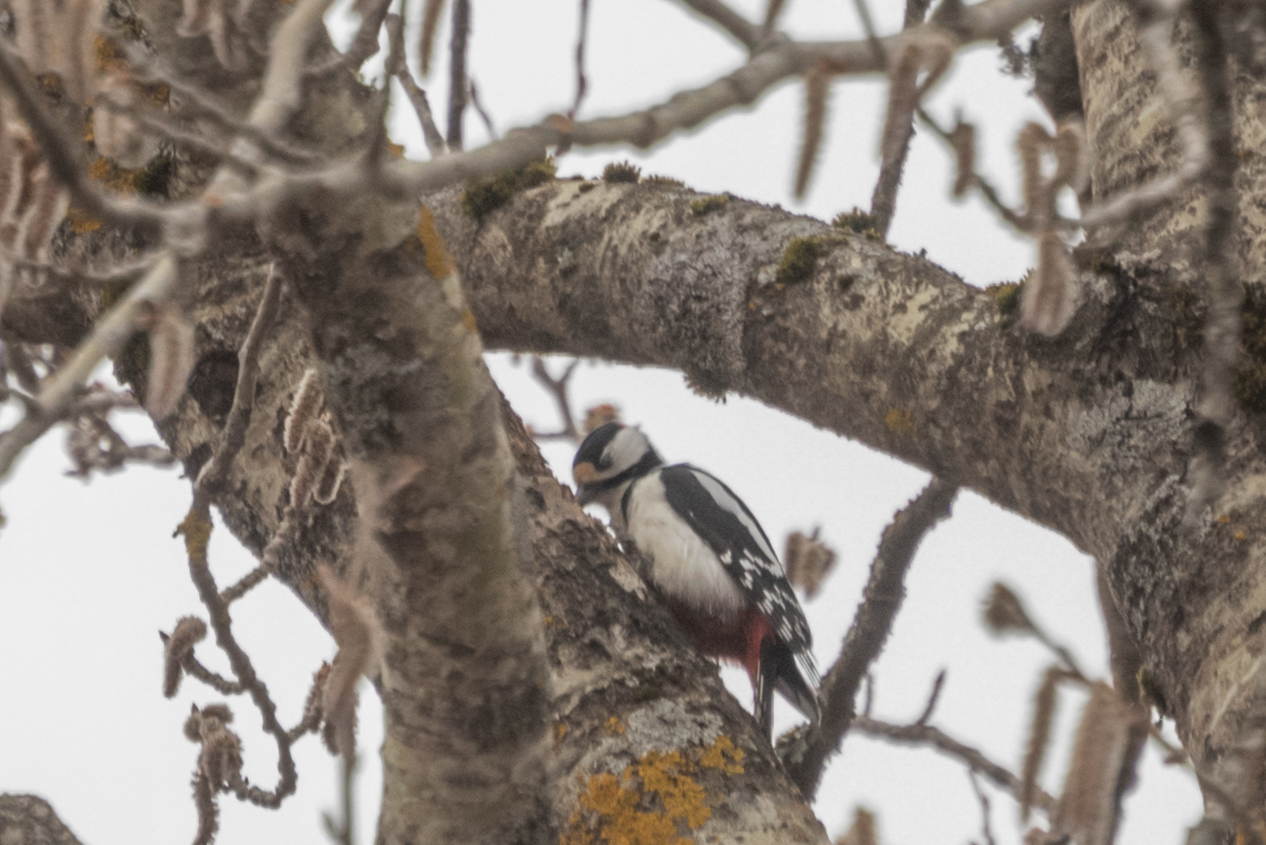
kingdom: Animalia
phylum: Chordata
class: Aves
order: Piciformes
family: Picidae
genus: Dendrocopos
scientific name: Dendrocopos major
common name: Great spotted woodpecker
